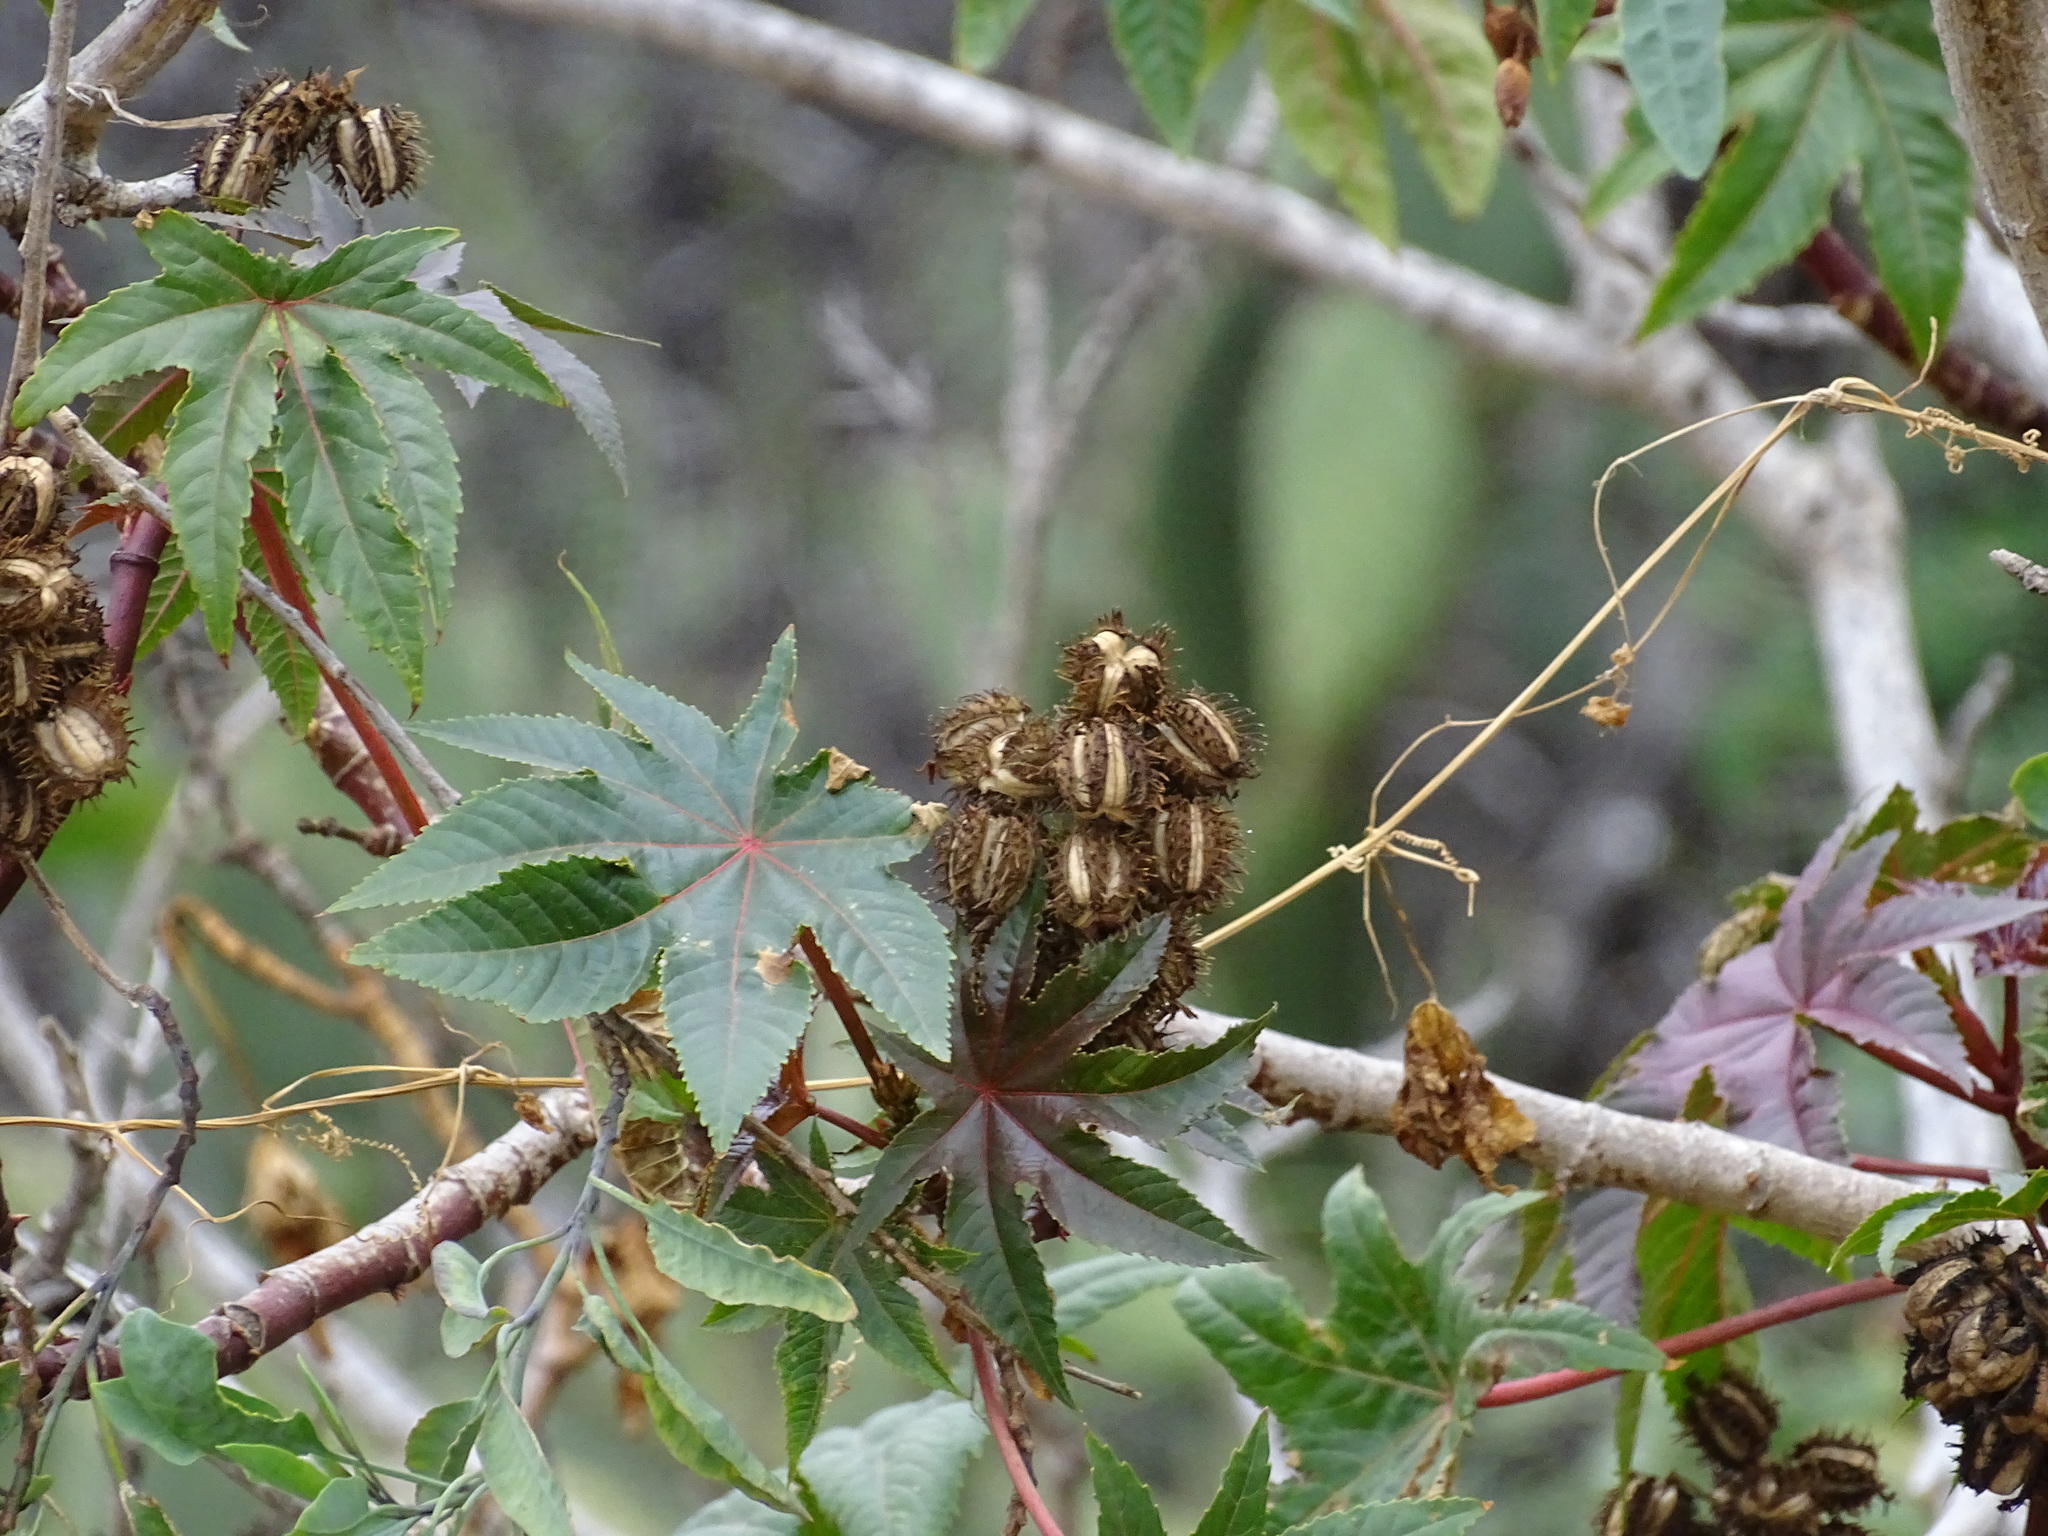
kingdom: Plantae
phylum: Tracheophyta
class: Magnoliopsida
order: Malpighiales
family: Euphorbiaceae
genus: Ricinus
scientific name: Ricinus communis
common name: Castor-oil-plant
